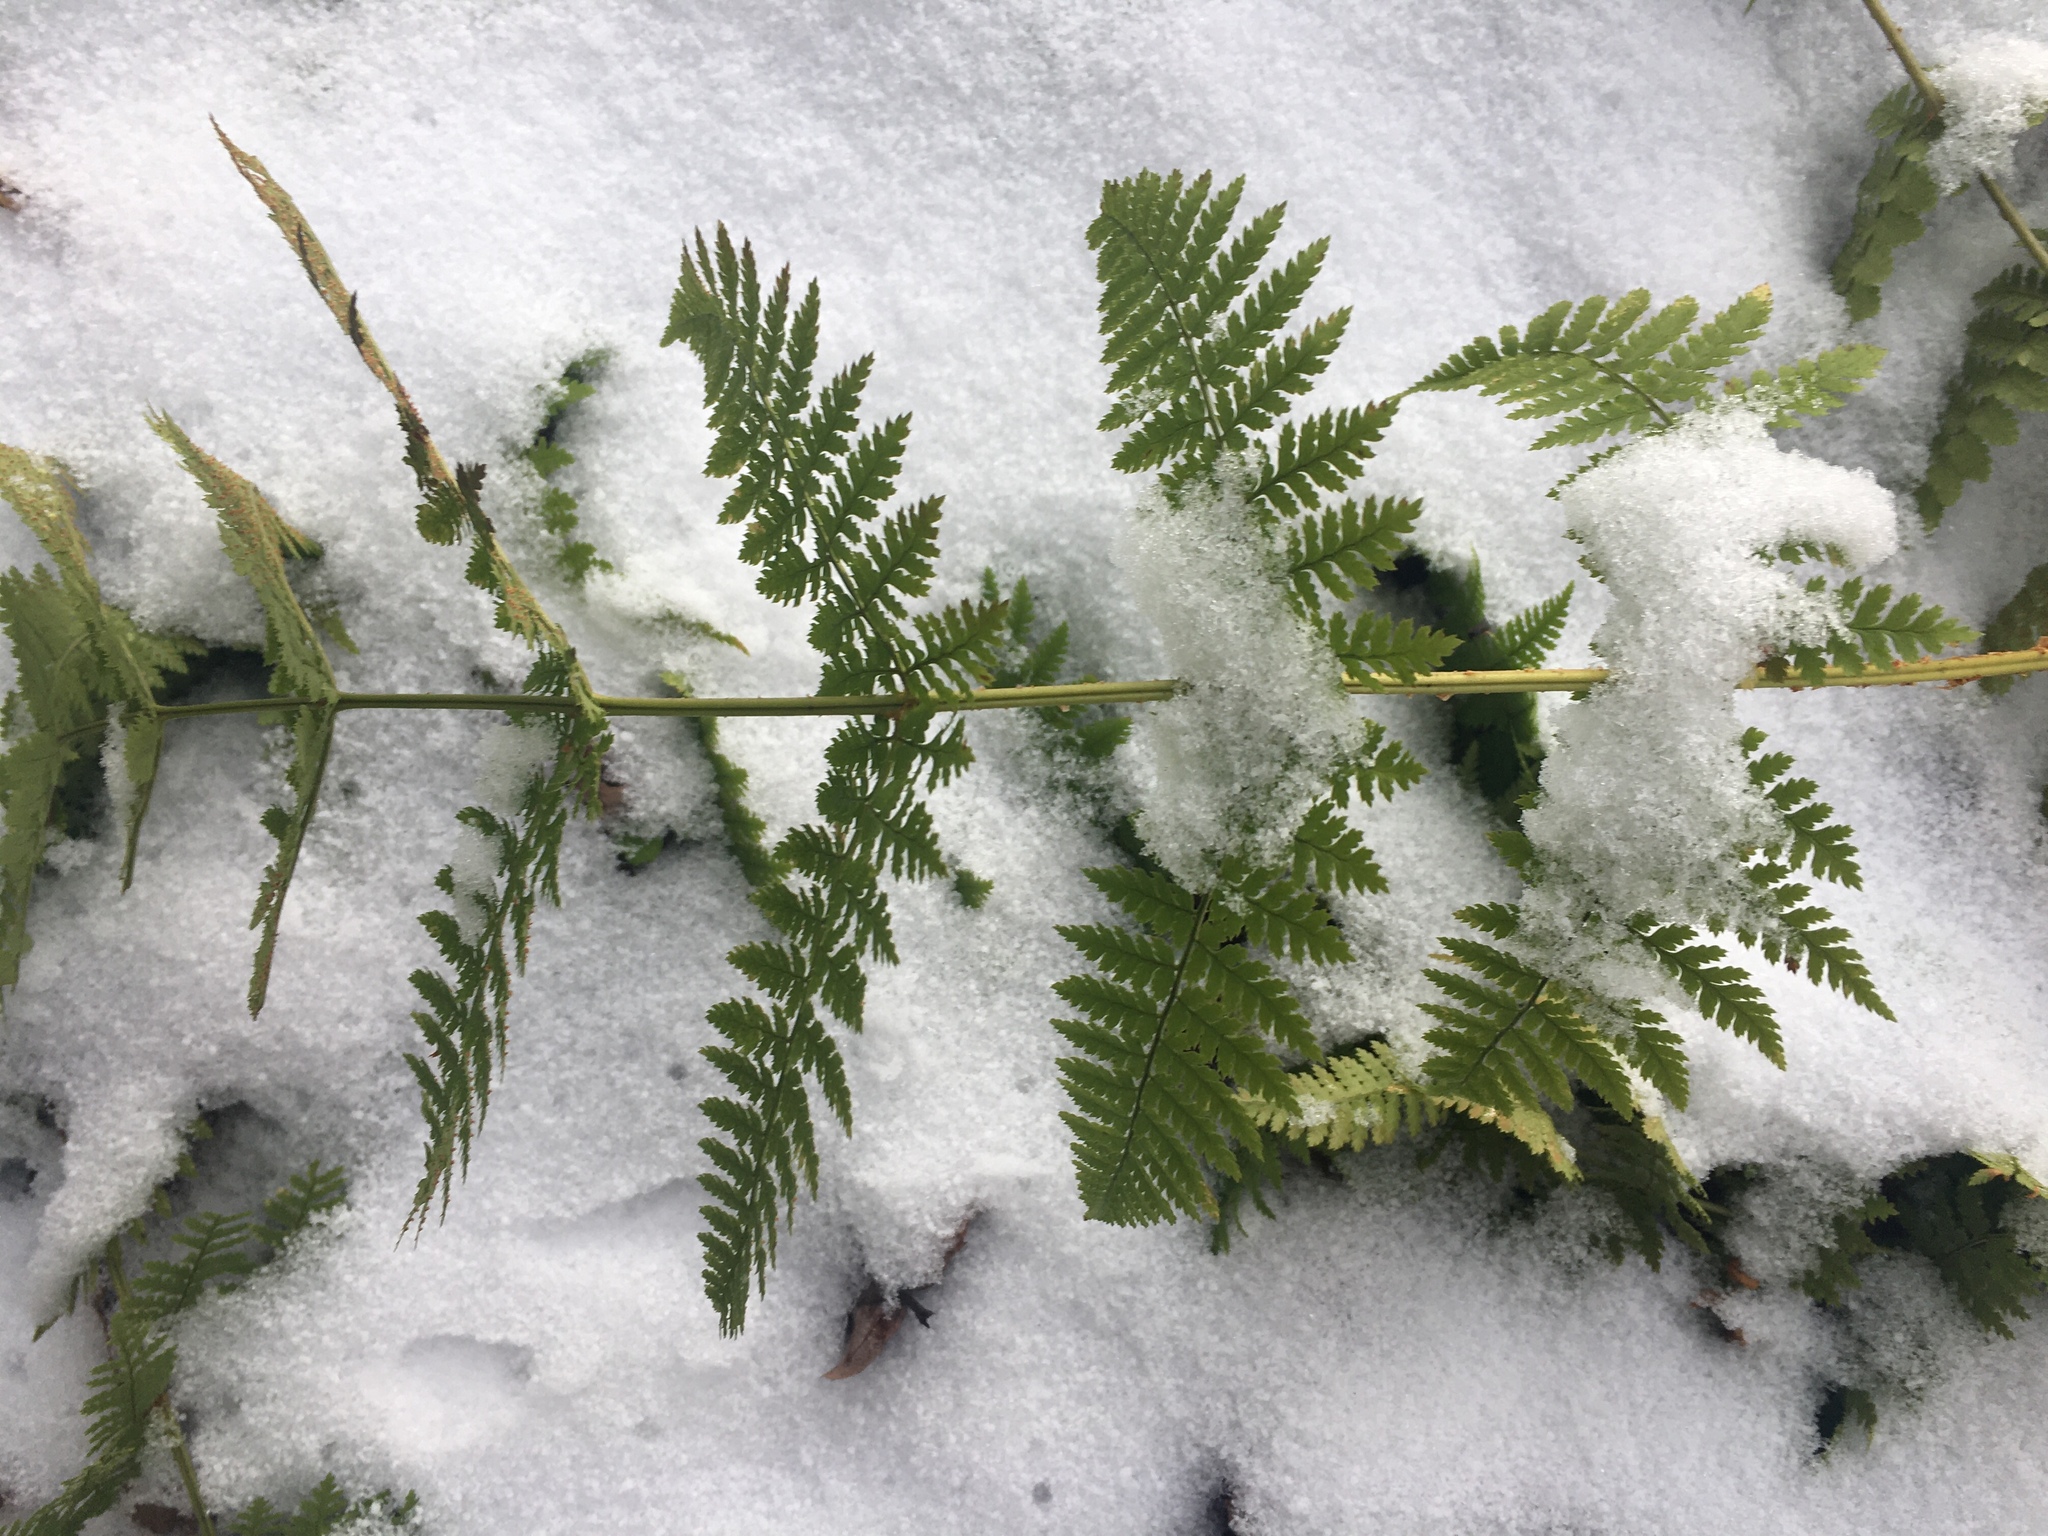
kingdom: Plantae
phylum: Tracheophyta
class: Polypodiopsida
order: Polypodiales
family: Dryopteridaceae
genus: Dryopteris
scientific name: Dryopteris campyloptera
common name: Mountain wood fern
